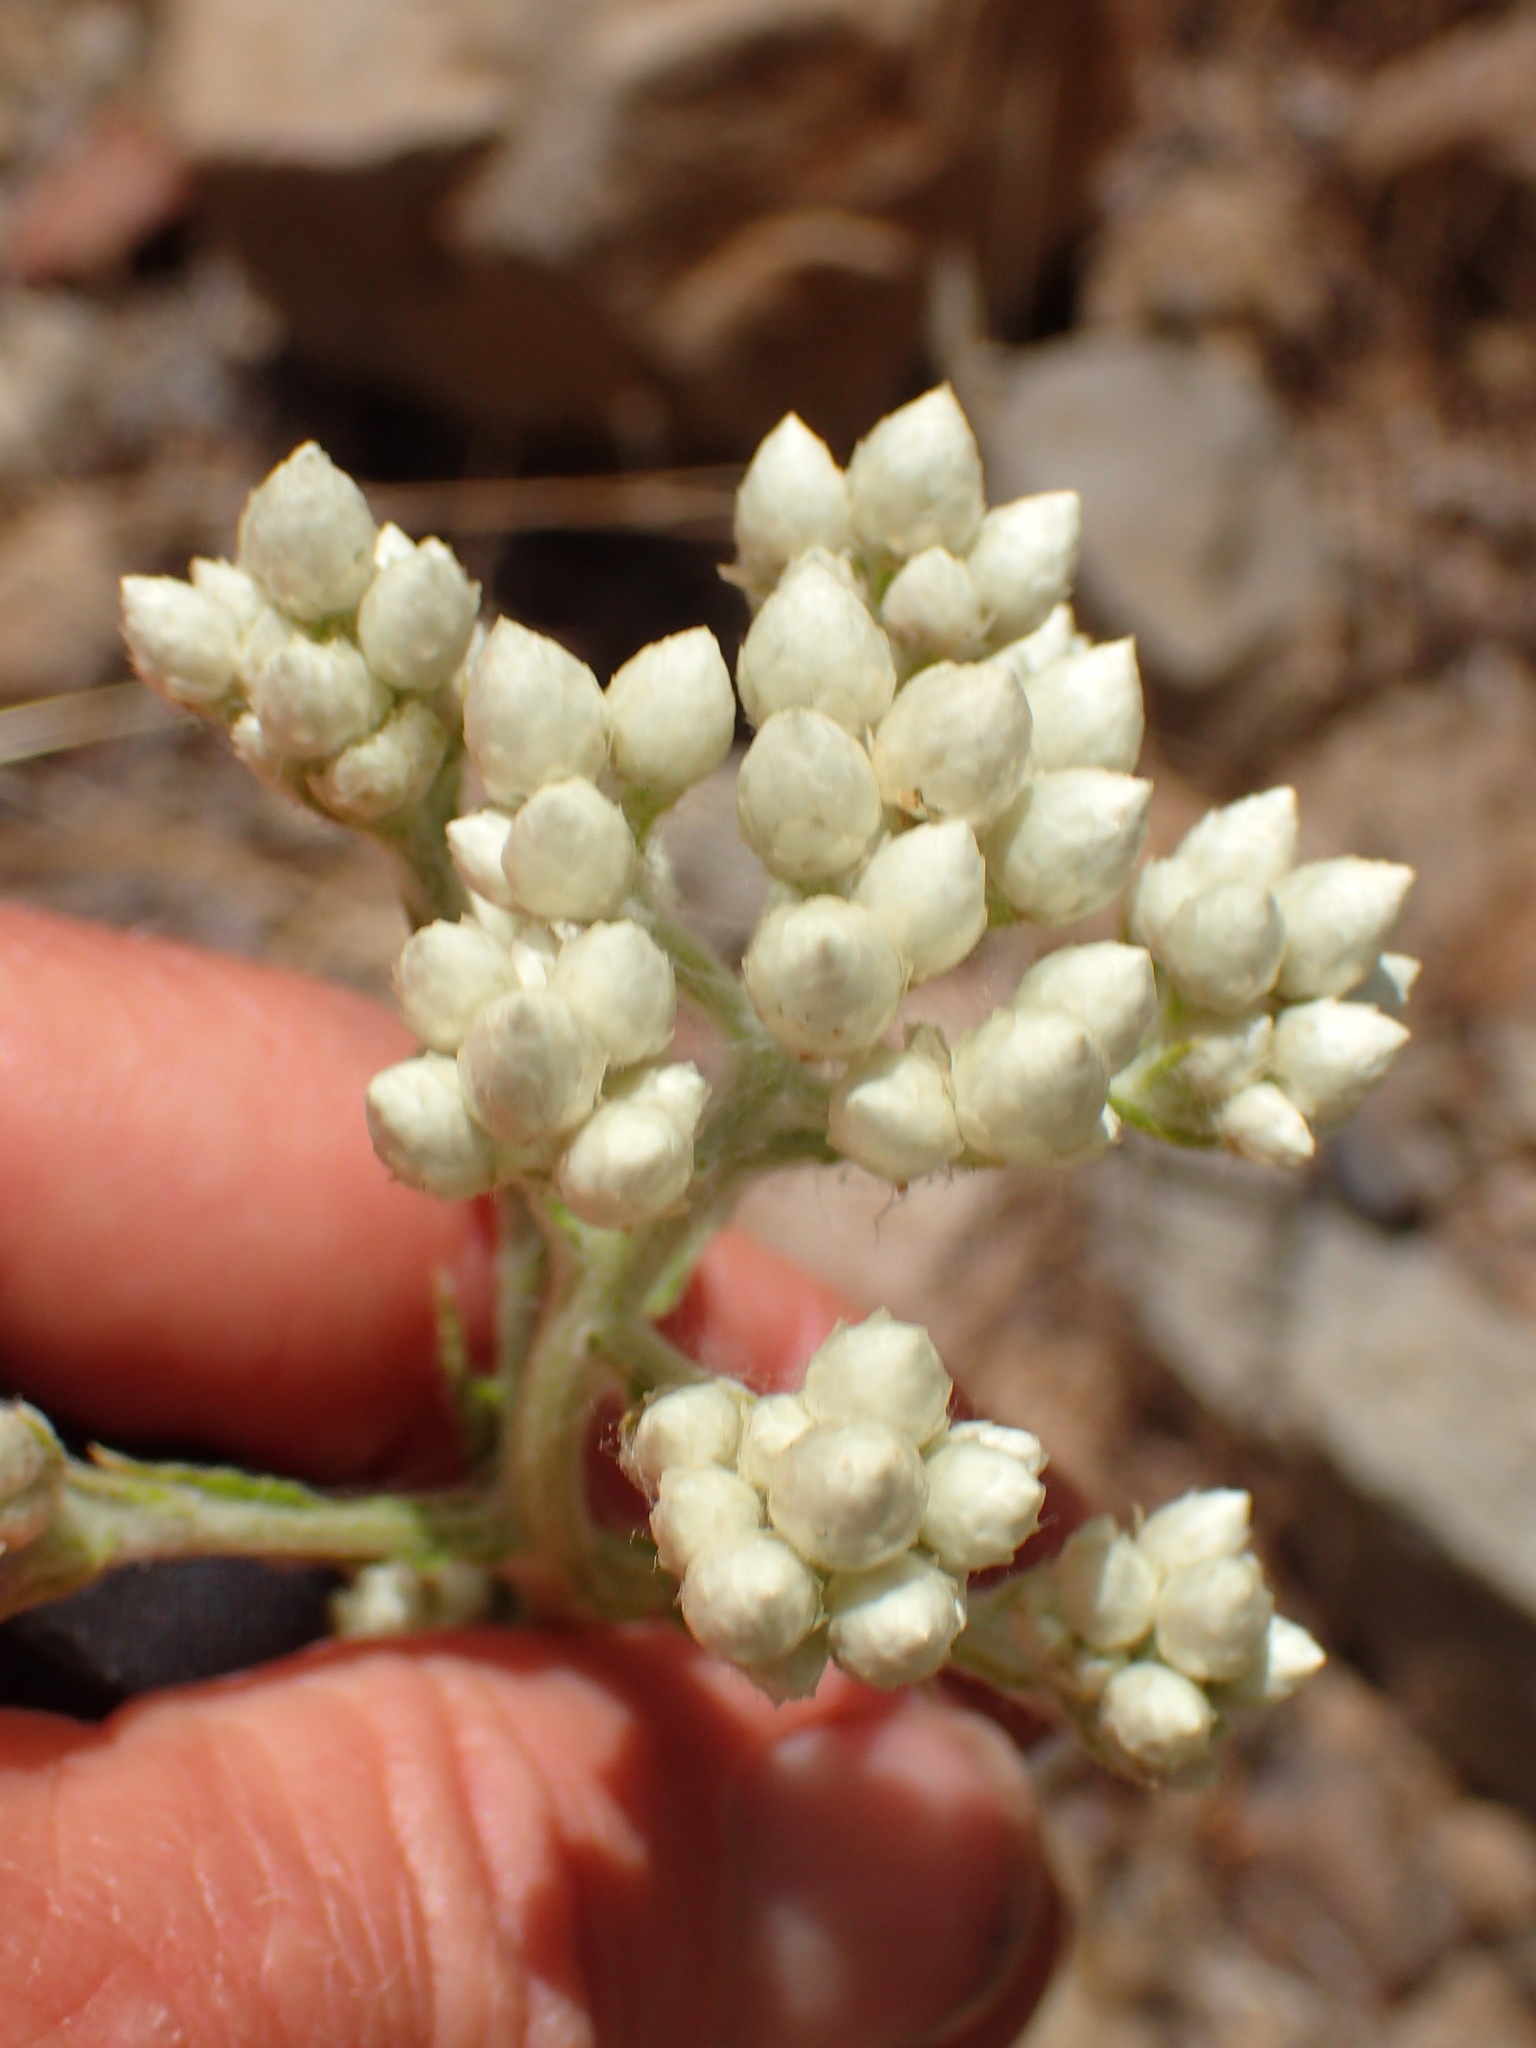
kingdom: Plantae
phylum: Tracheophyta
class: Magnoliopsida
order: Asterales
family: Asteraceae
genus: Pseudognaphalium
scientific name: Pseudognaphalium californicum
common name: California rabbit-tobacco
